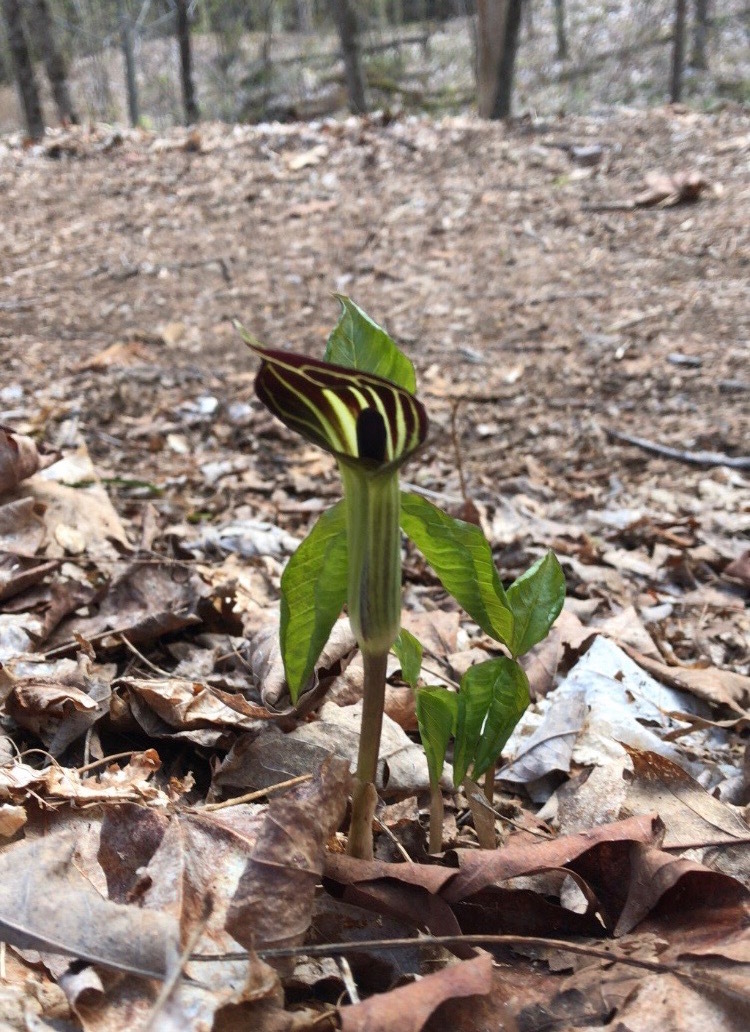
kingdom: Plantae
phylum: Tracheophyta
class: Liliopsida
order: Alismatales
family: Araceae
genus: Arisaema
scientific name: Arisaema triphyllum
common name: Jack-in-the-pulpit
